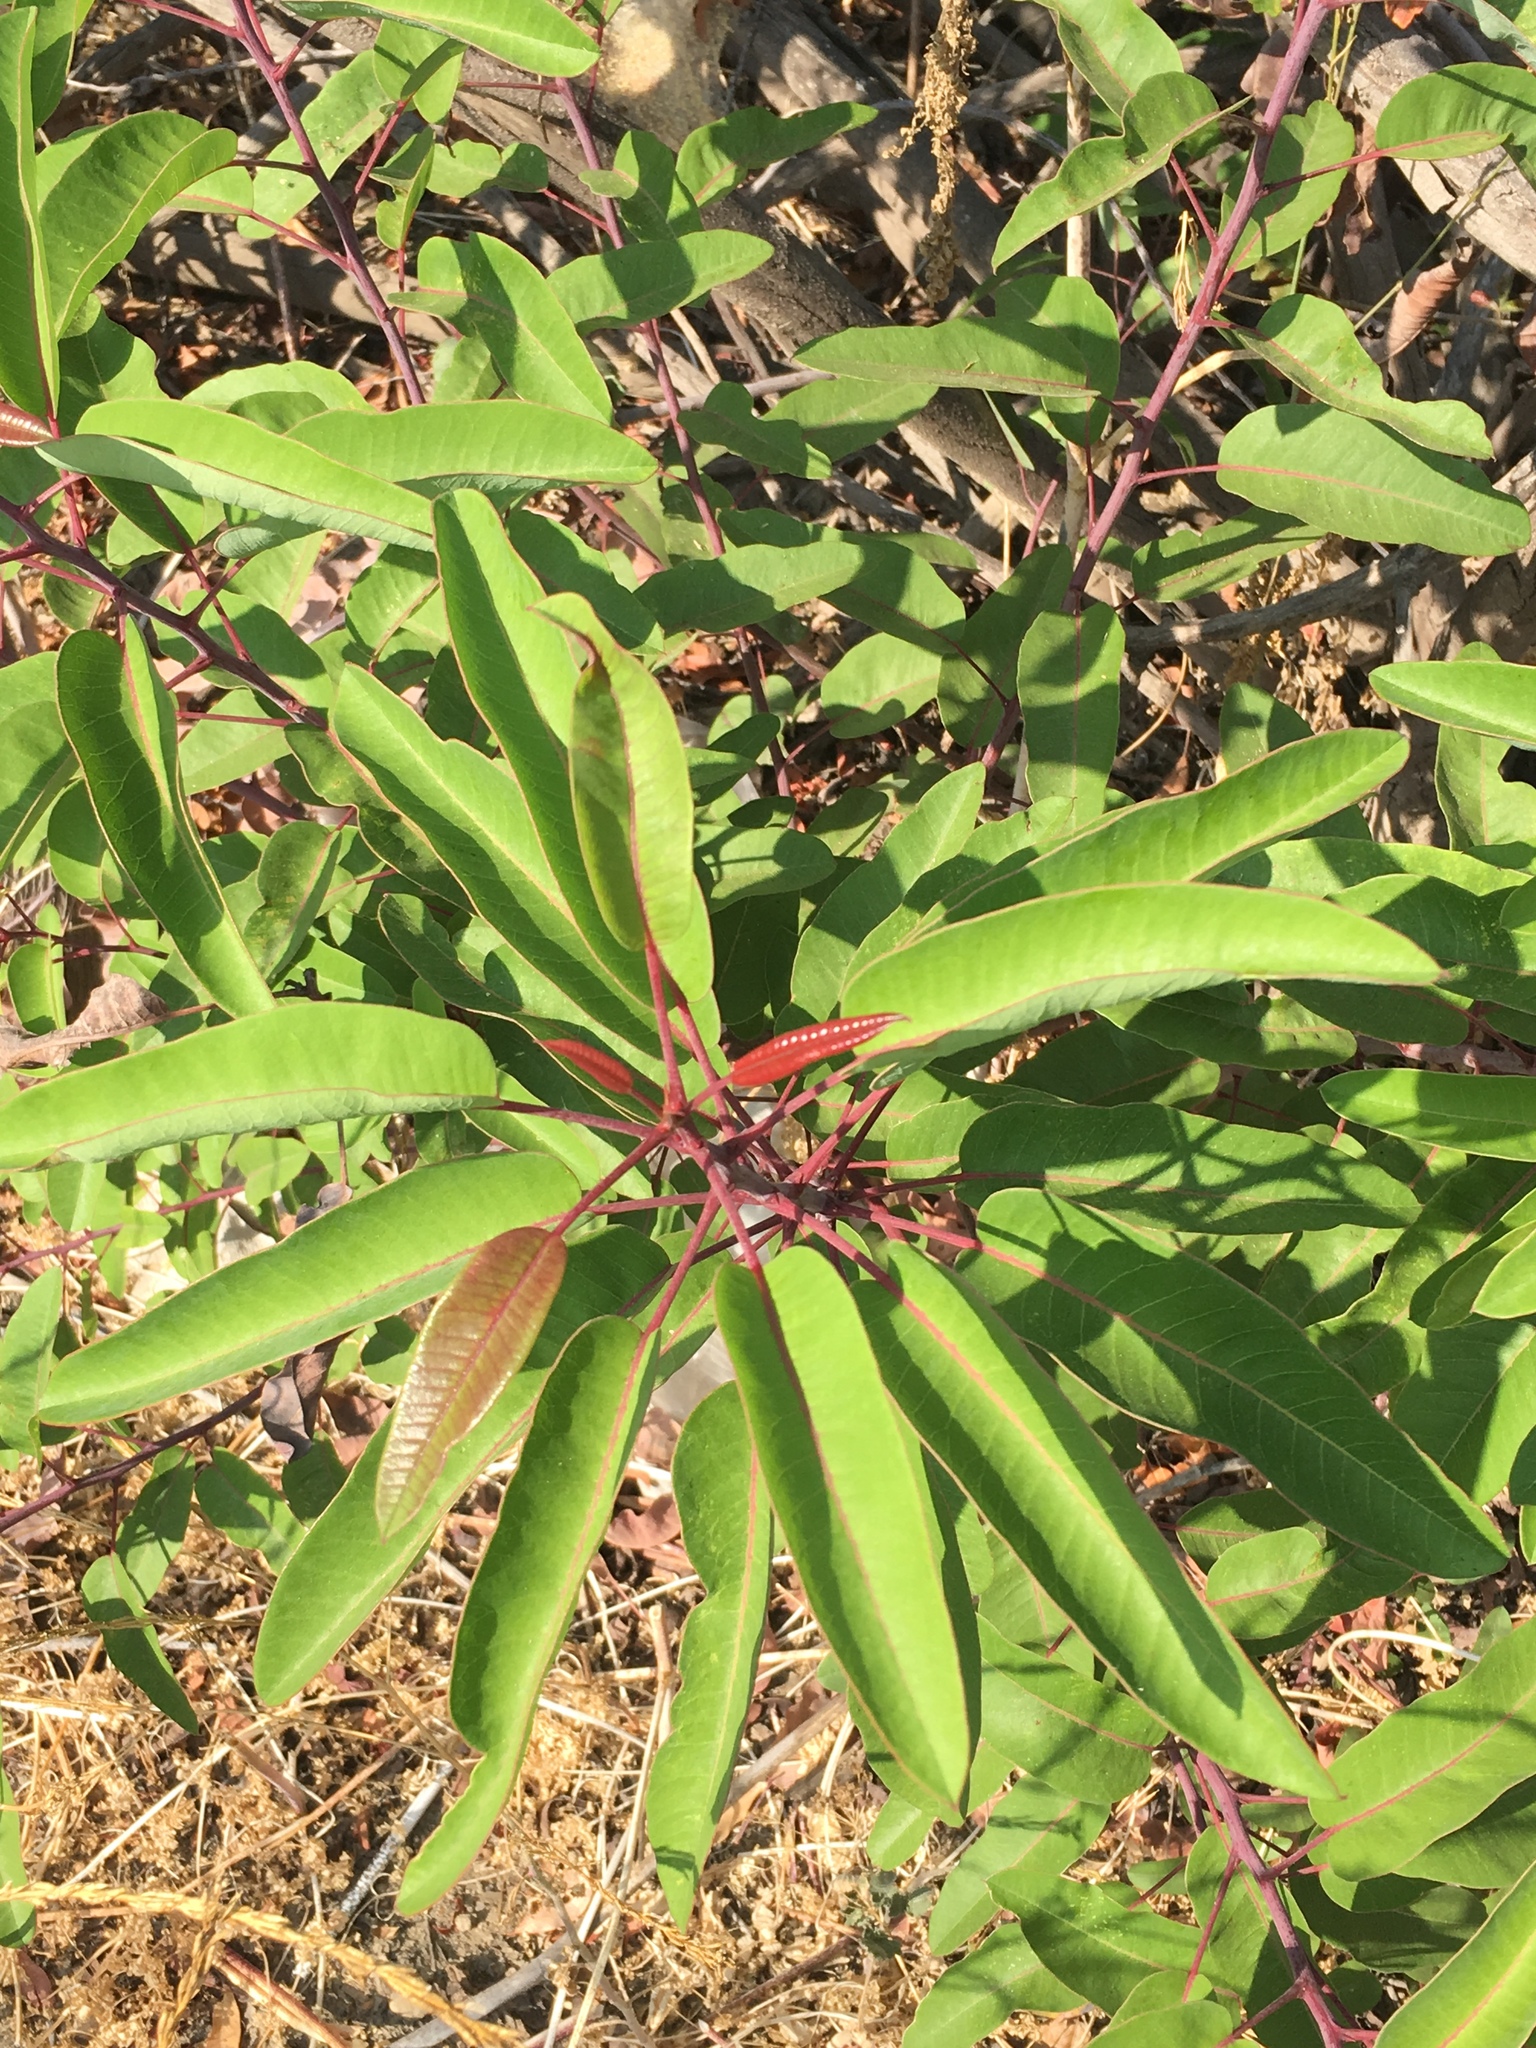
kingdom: Plantae
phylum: Tracheophyta
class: Magnoliopsida
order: Sapindales
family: Anacardiaceae
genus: Malosma
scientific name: Malosma laurina
